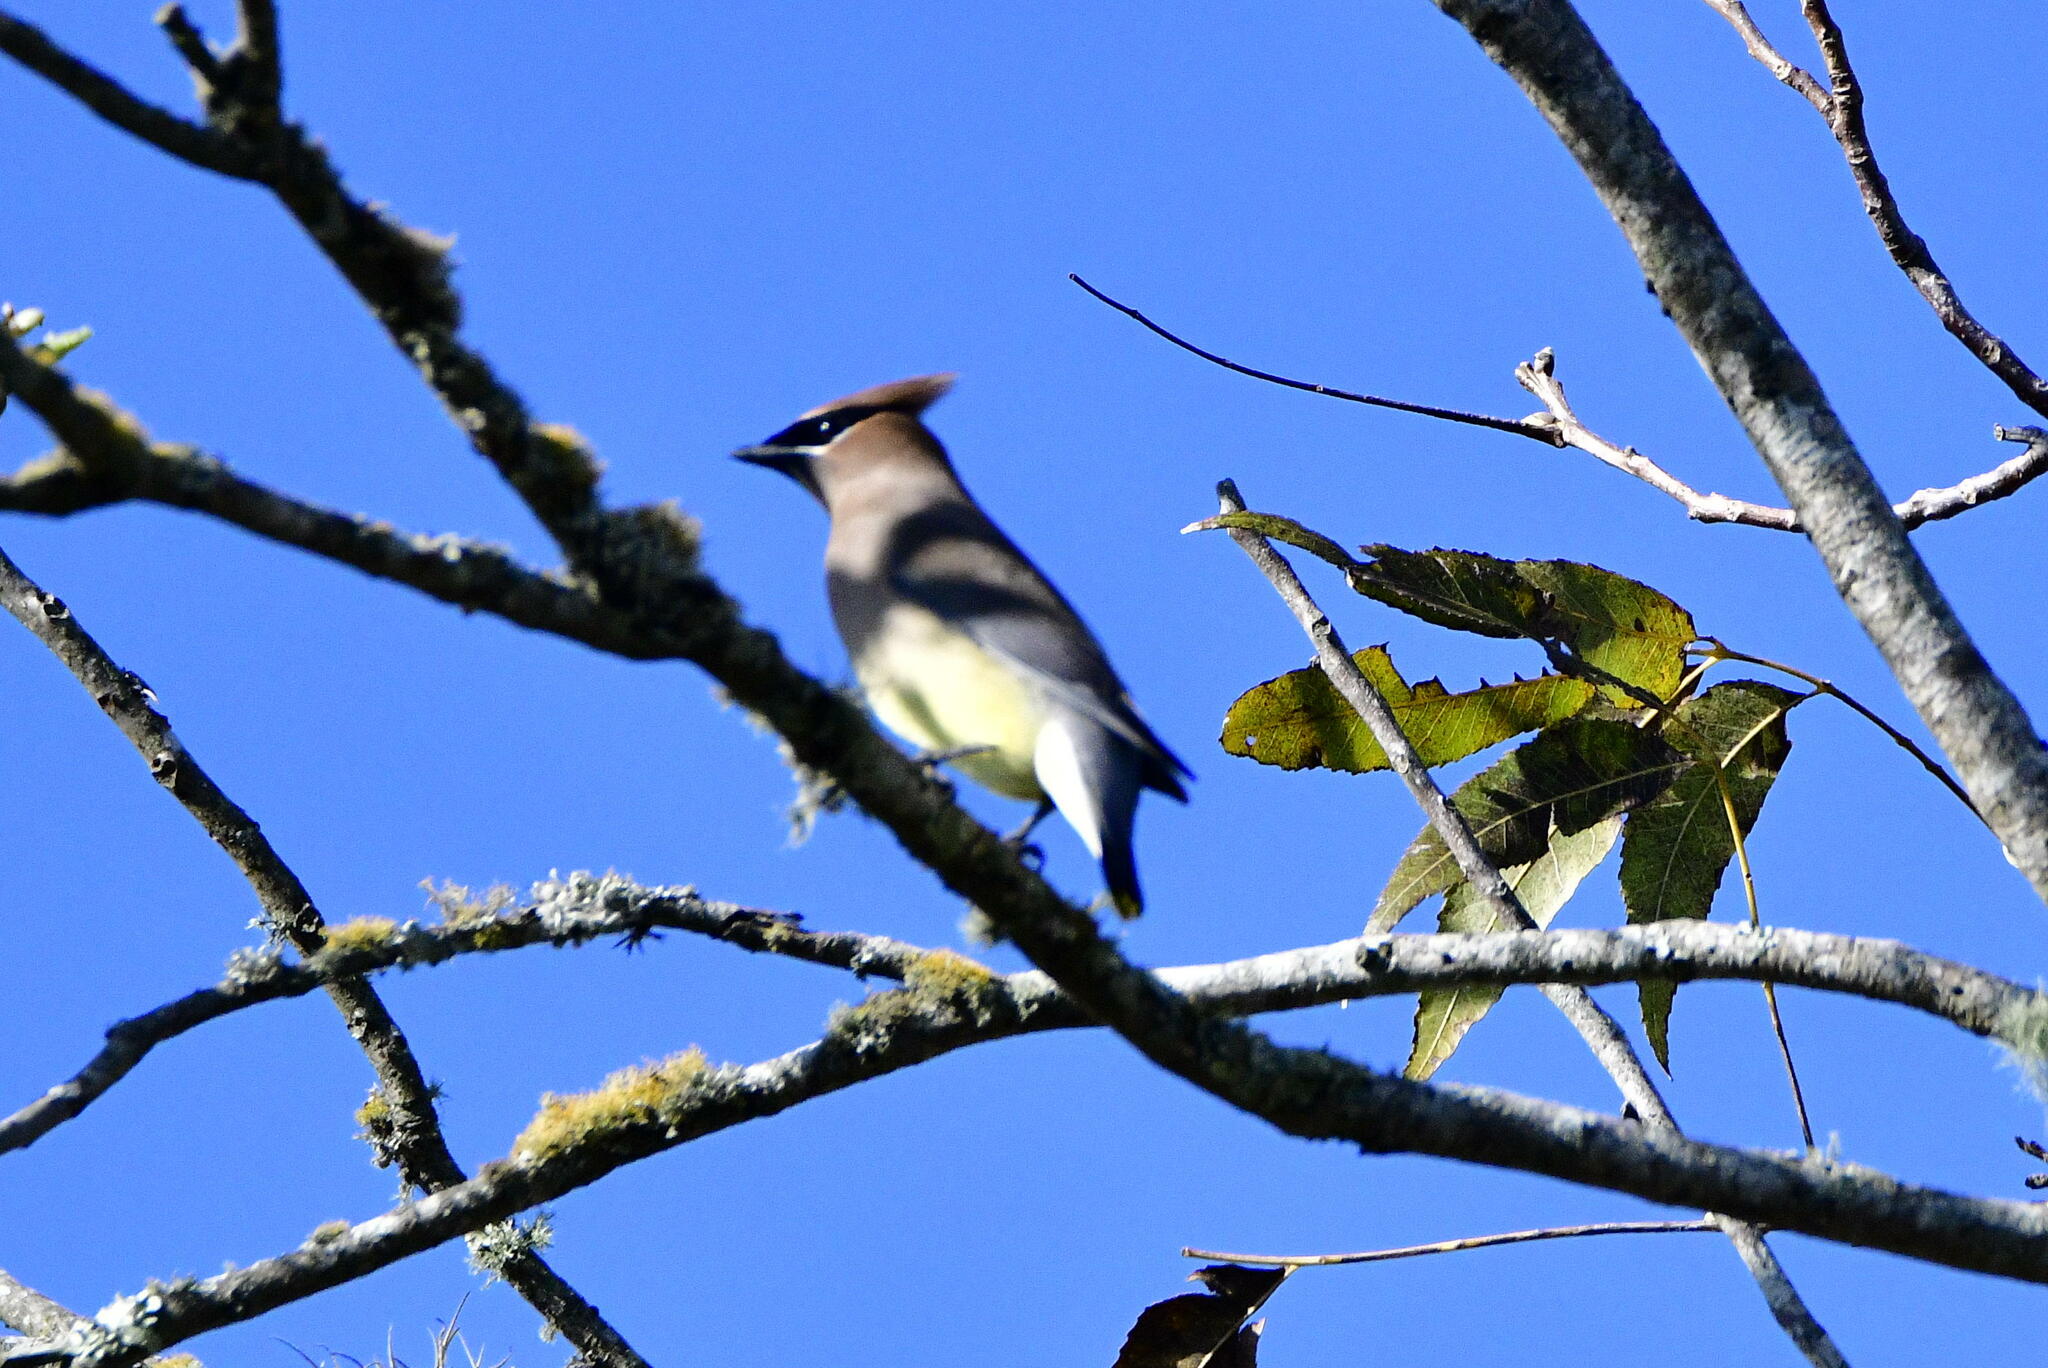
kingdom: Animalia
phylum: Chordata
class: Aves
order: Passeriformes
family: Bombycillidae
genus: Bombycilla
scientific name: Bombycilla cedrorum
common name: Cedar waxwing
